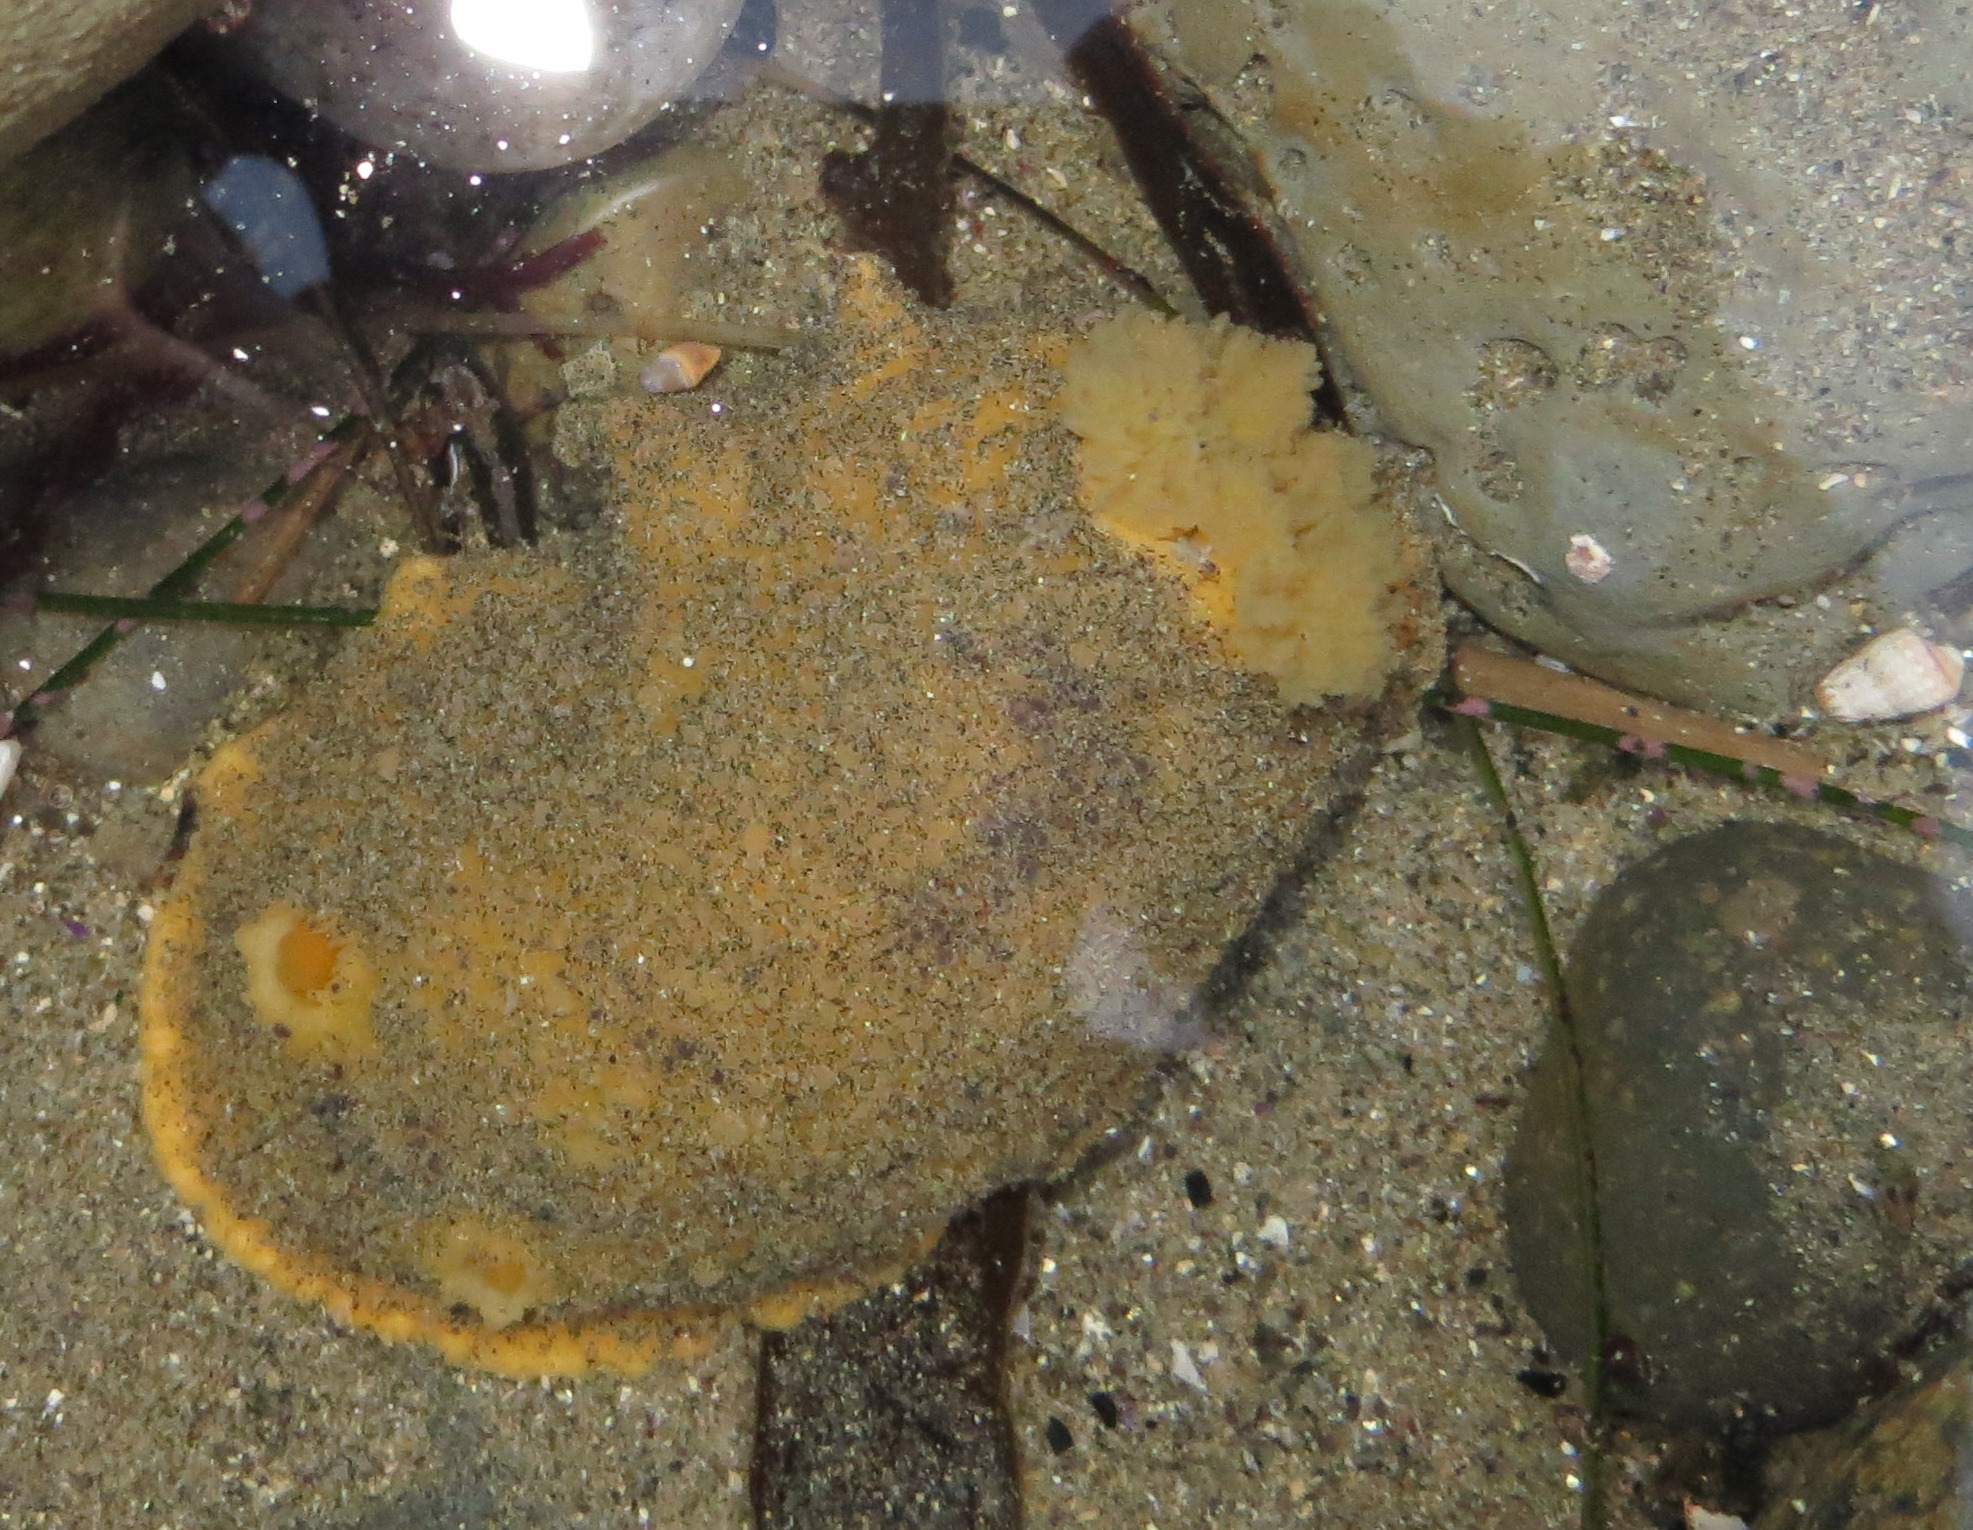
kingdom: Animalia
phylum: Mollusca
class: Gastropoda
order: Nudibranchia
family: Dorididae
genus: Doris
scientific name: Doris montereyensis
